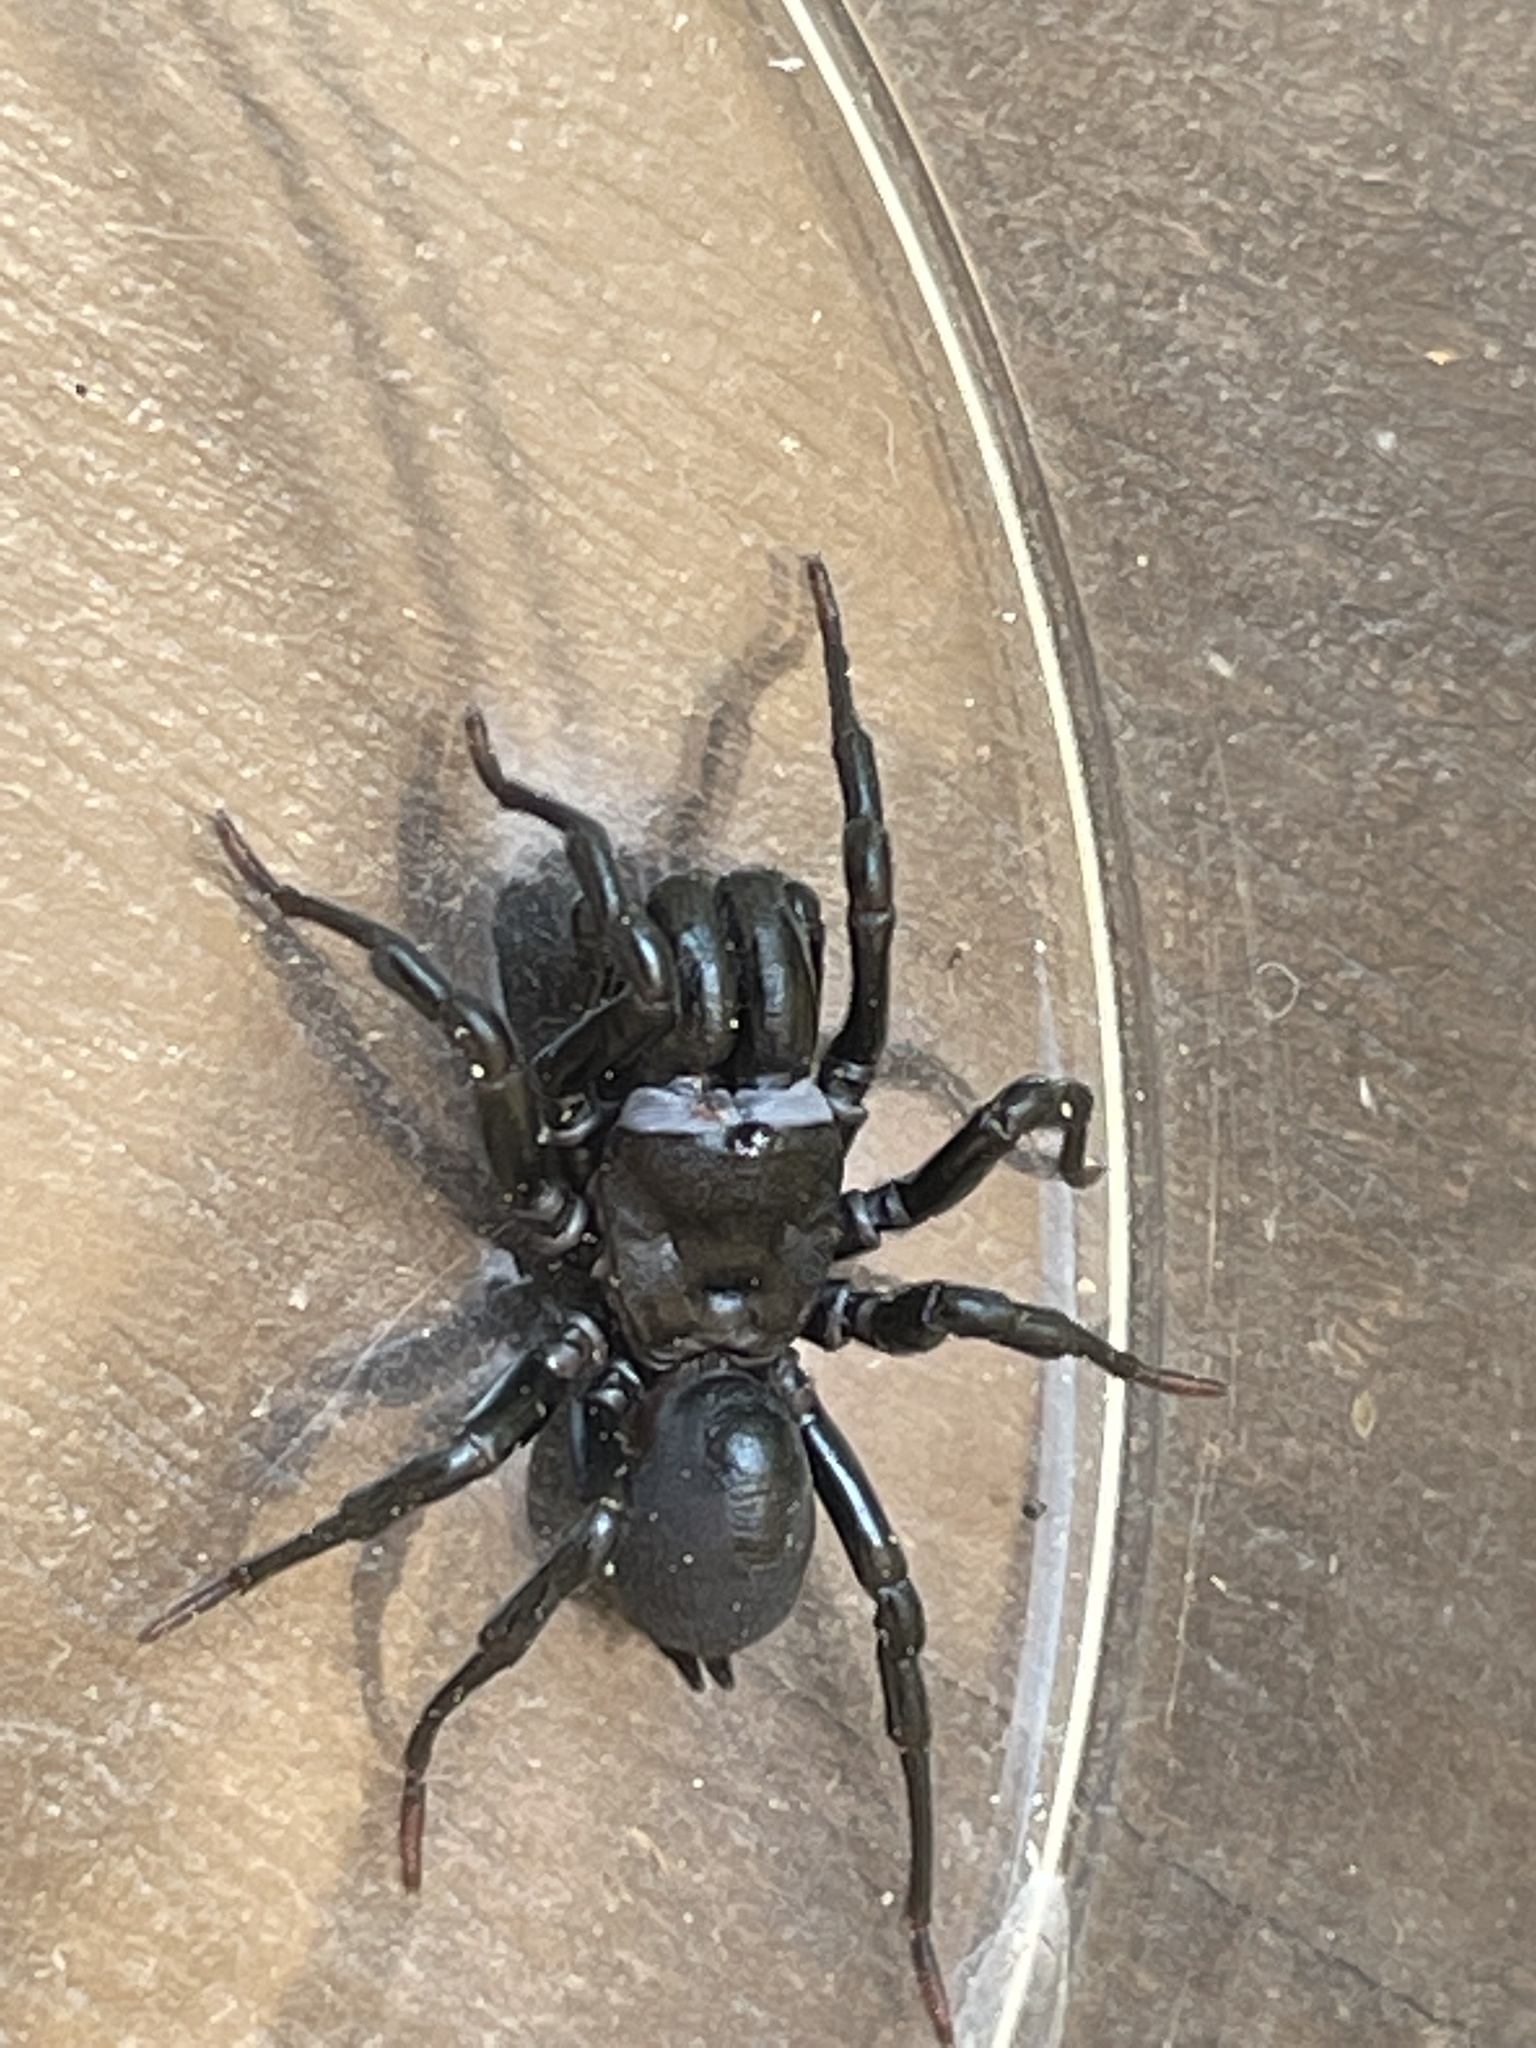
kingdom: Animalia
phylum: Arthropoda
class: Arachnida
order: Araneae
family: Atypidae
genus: Sphodros
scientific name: Sphodros niger
